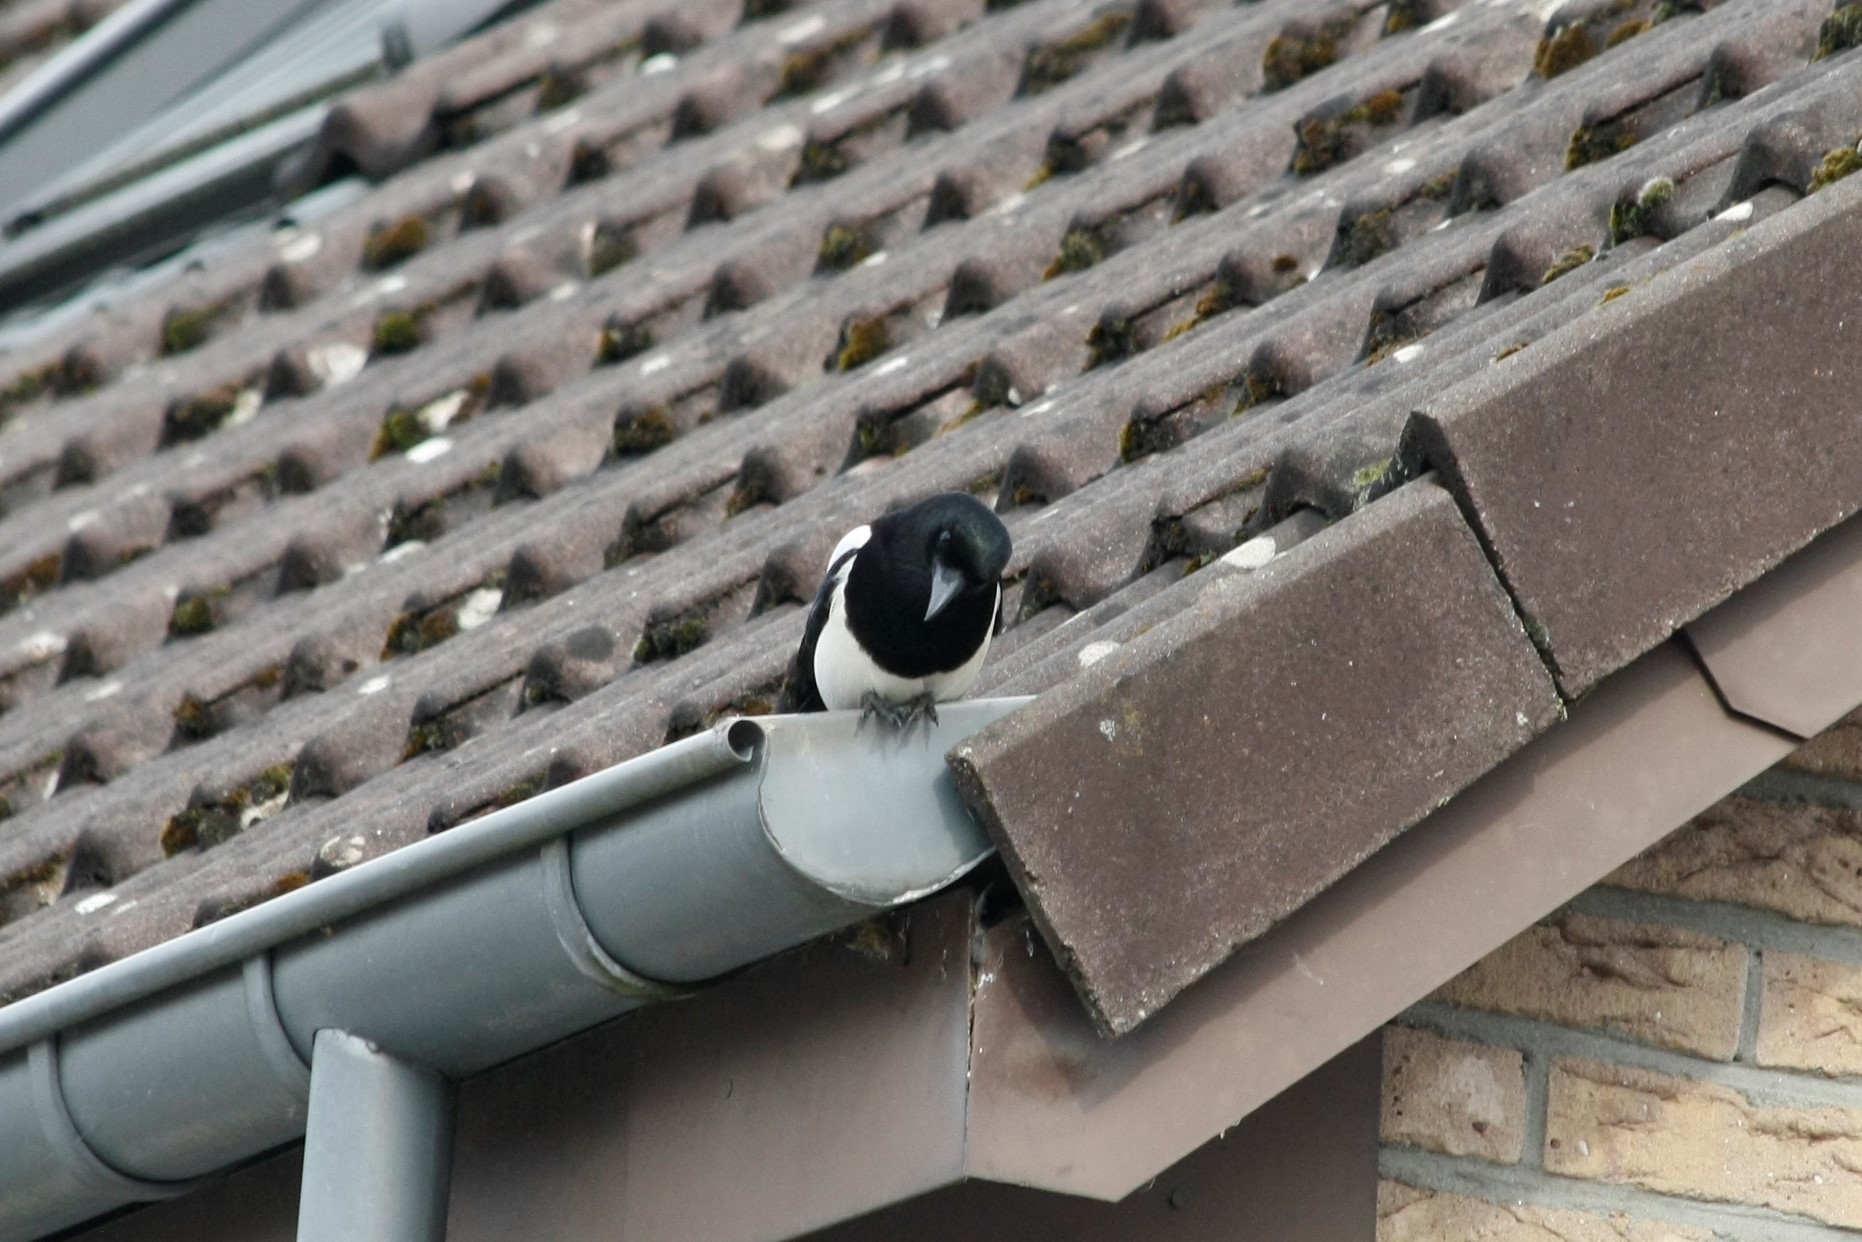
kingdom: Animalia
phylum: Chordata
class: Aves
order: Passeriformes
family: Corvidae
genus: Pica
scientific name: Pica pica
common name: Eurasian magpie
